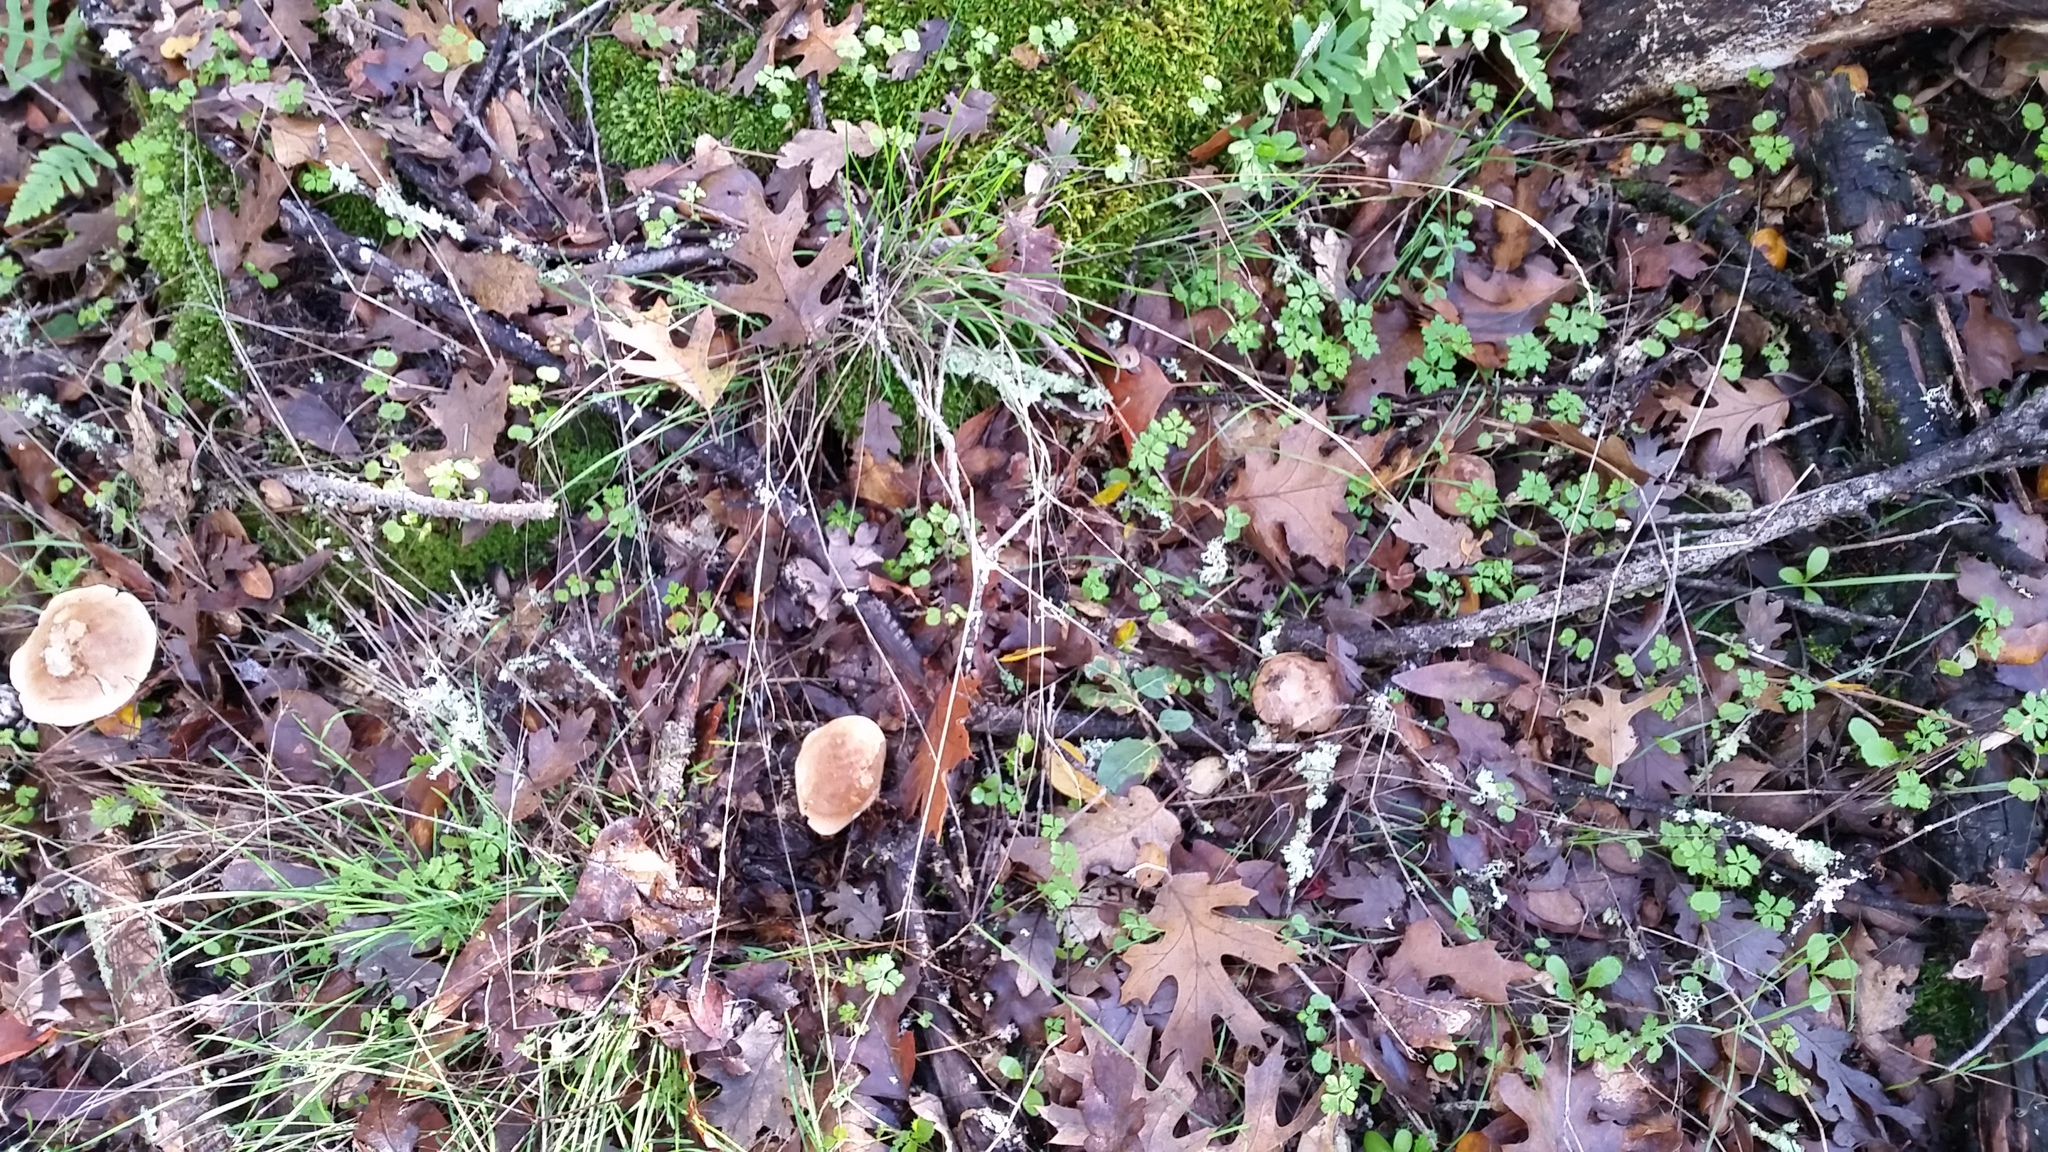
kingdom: Fungi
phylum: Basidiomycota
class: Agaricomycetes
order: Agaricales
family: Tricholomataceae
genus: Leucopaxillus
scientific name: Leucopaxillus gentianeus
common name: Bitter funnel
